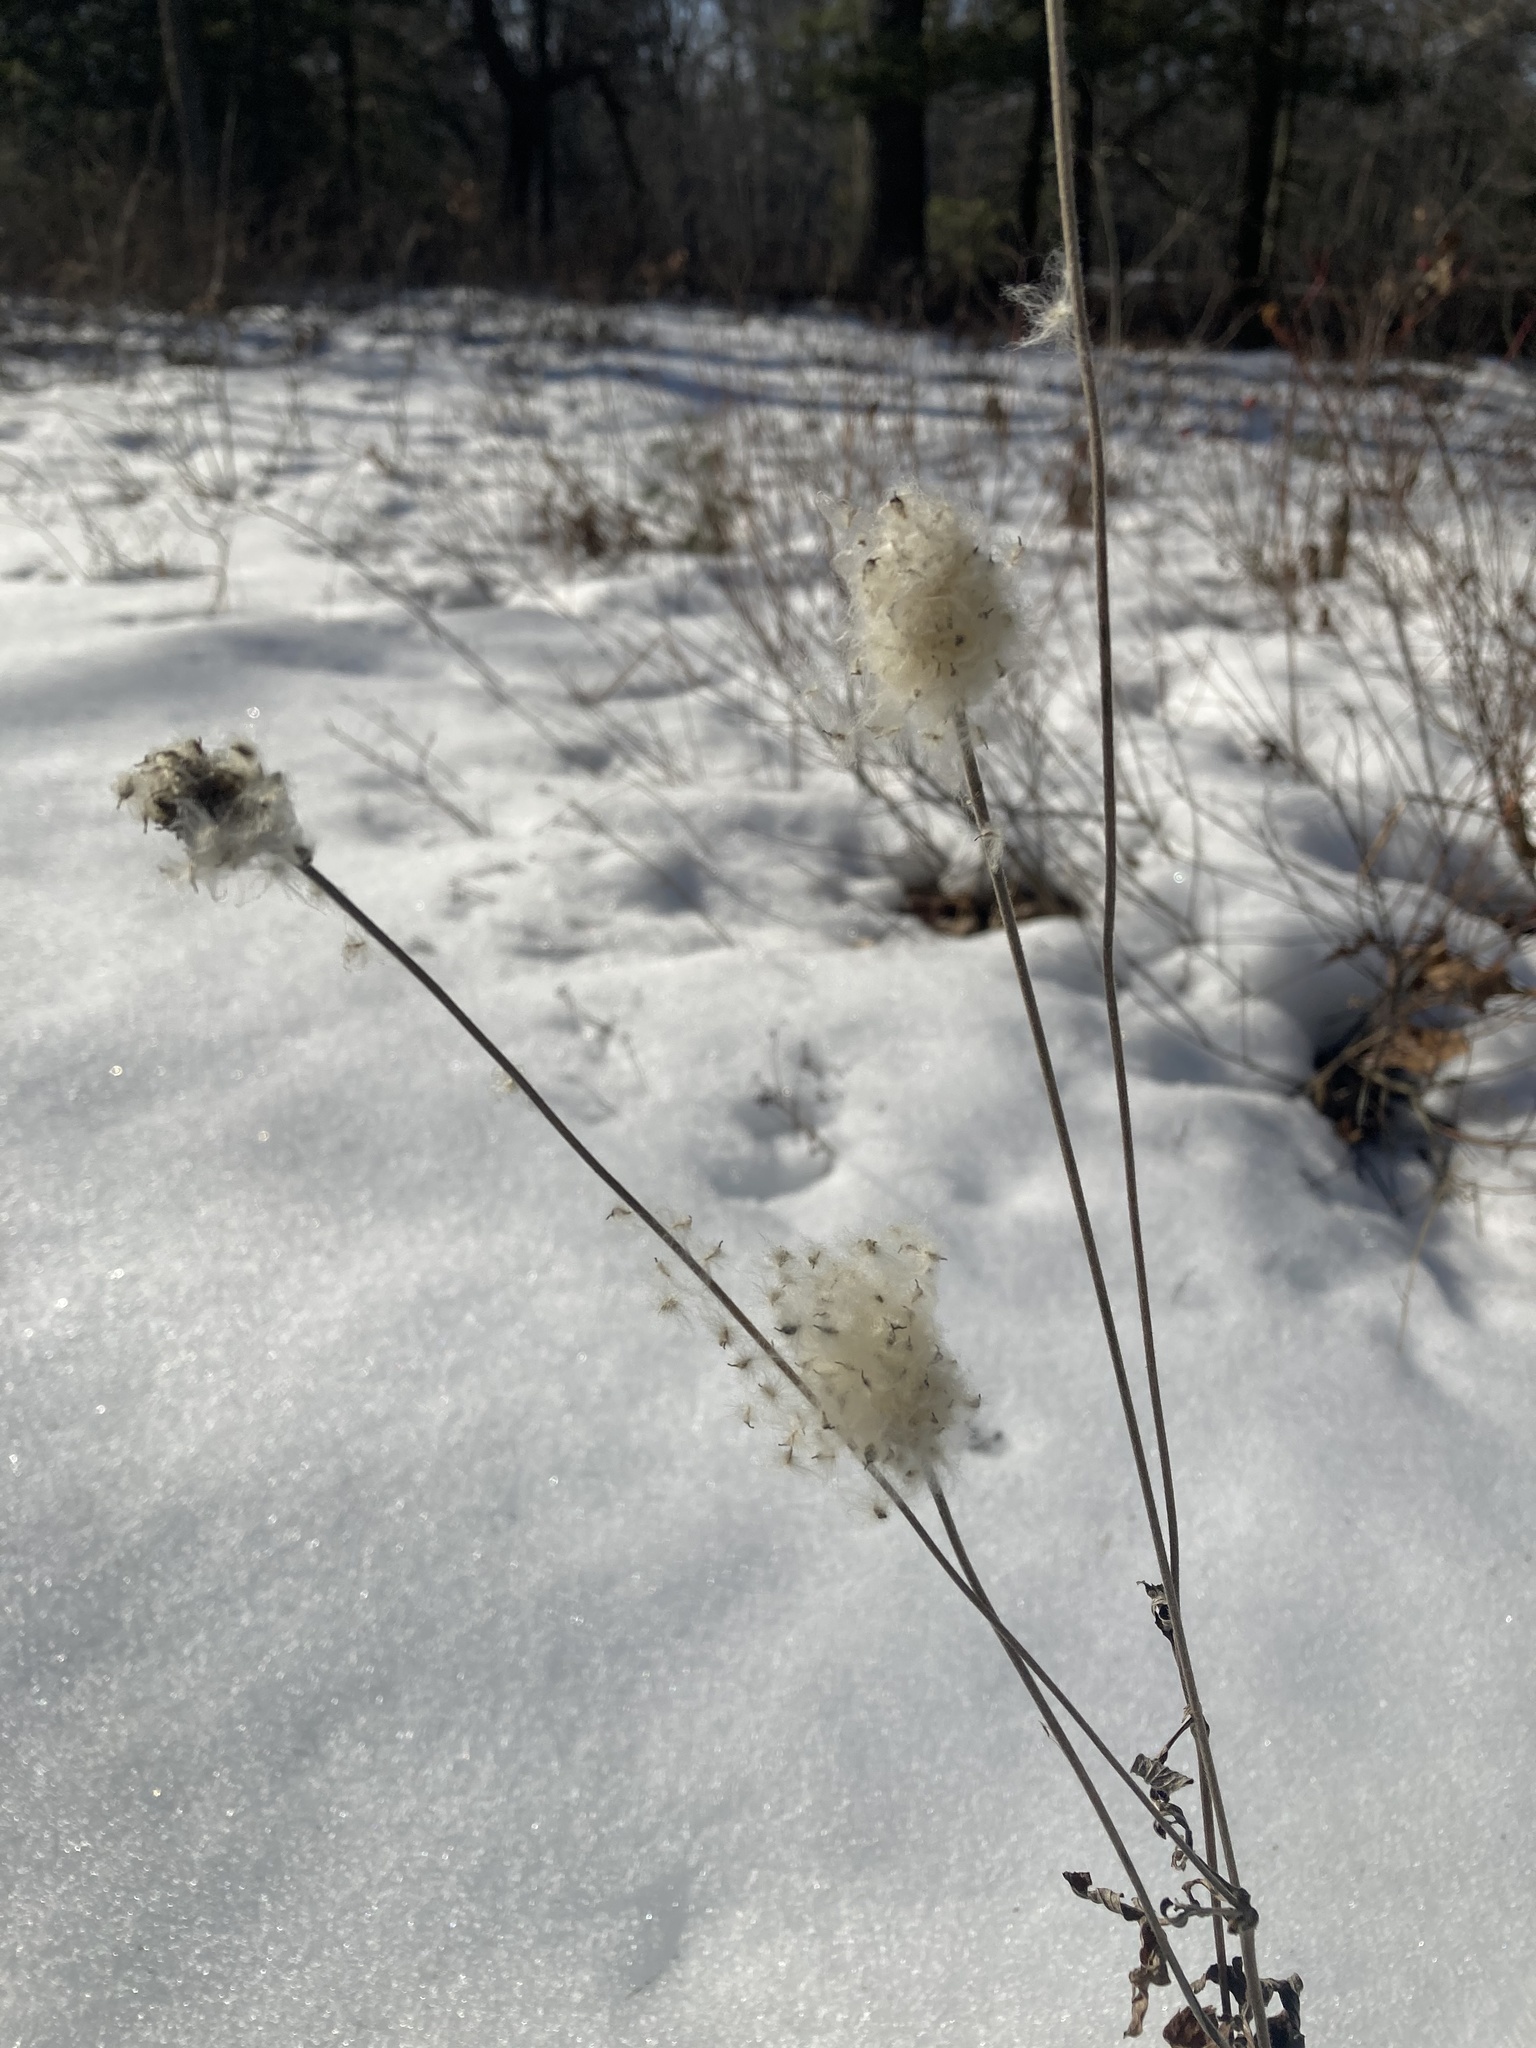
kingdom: Plantae
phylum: Tracheophyta
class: Magnoliopsida
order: Ranunculales
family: Ranunculaceae
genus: Anemone
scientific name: Anemone virginiana
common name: Tall anemone
